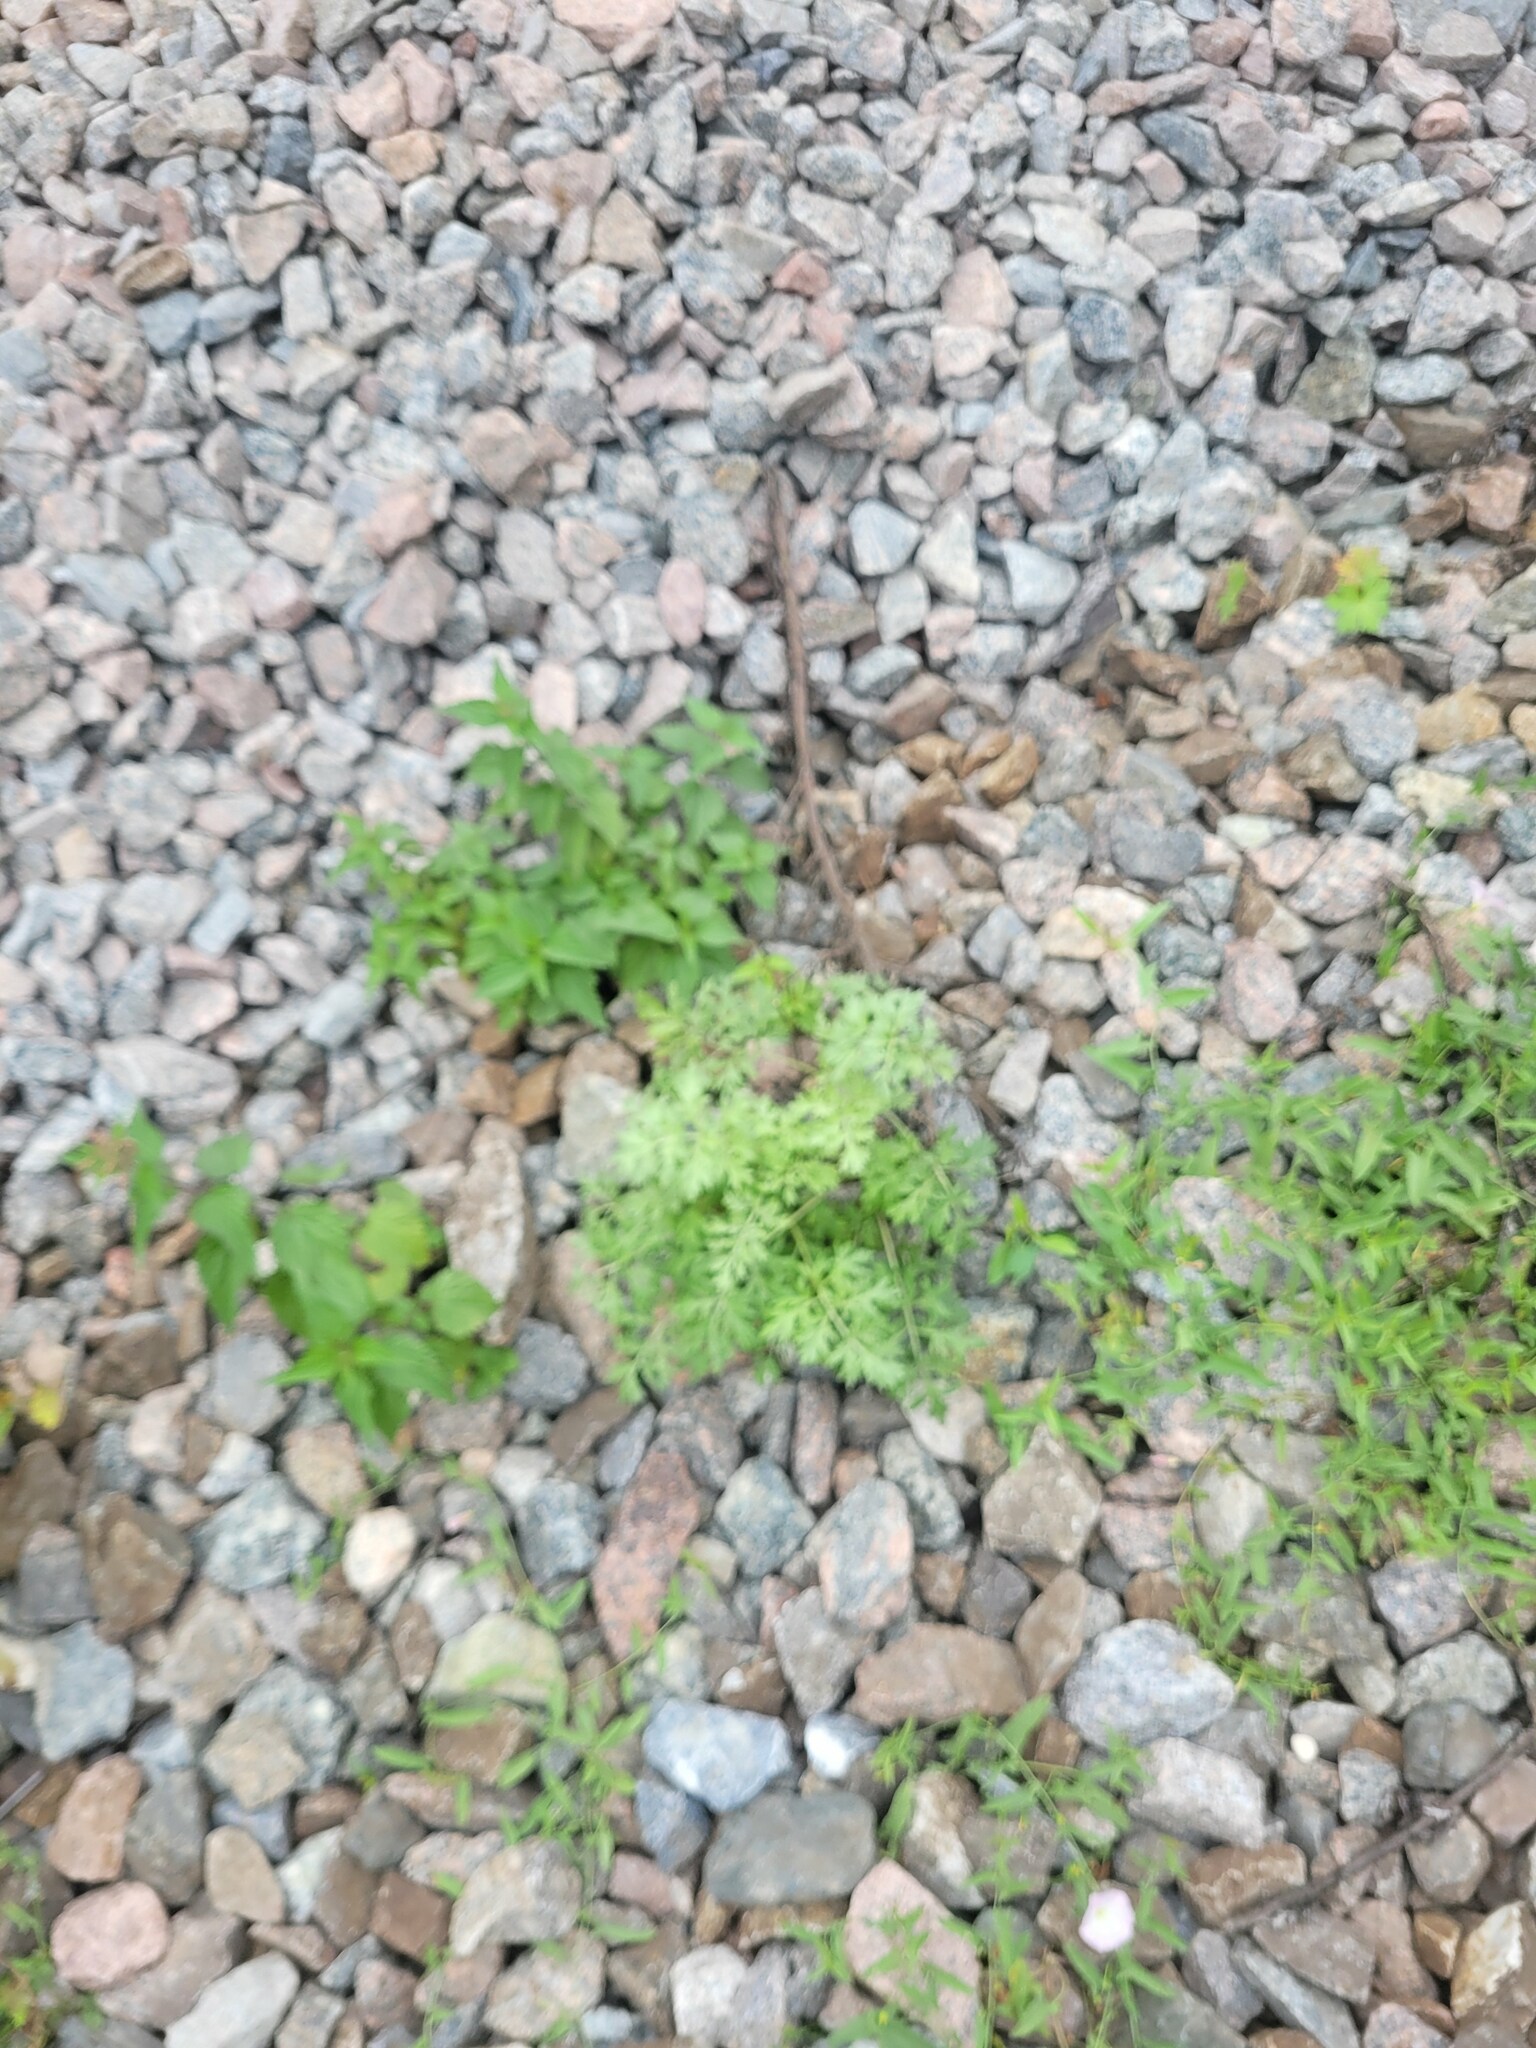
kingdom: Plantae
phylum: Tracheophyta
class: Magnoliopsida
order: Asterales
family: Asteraceae
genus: Artemisia
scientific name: Artemisia absinthium
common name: Wormwood
